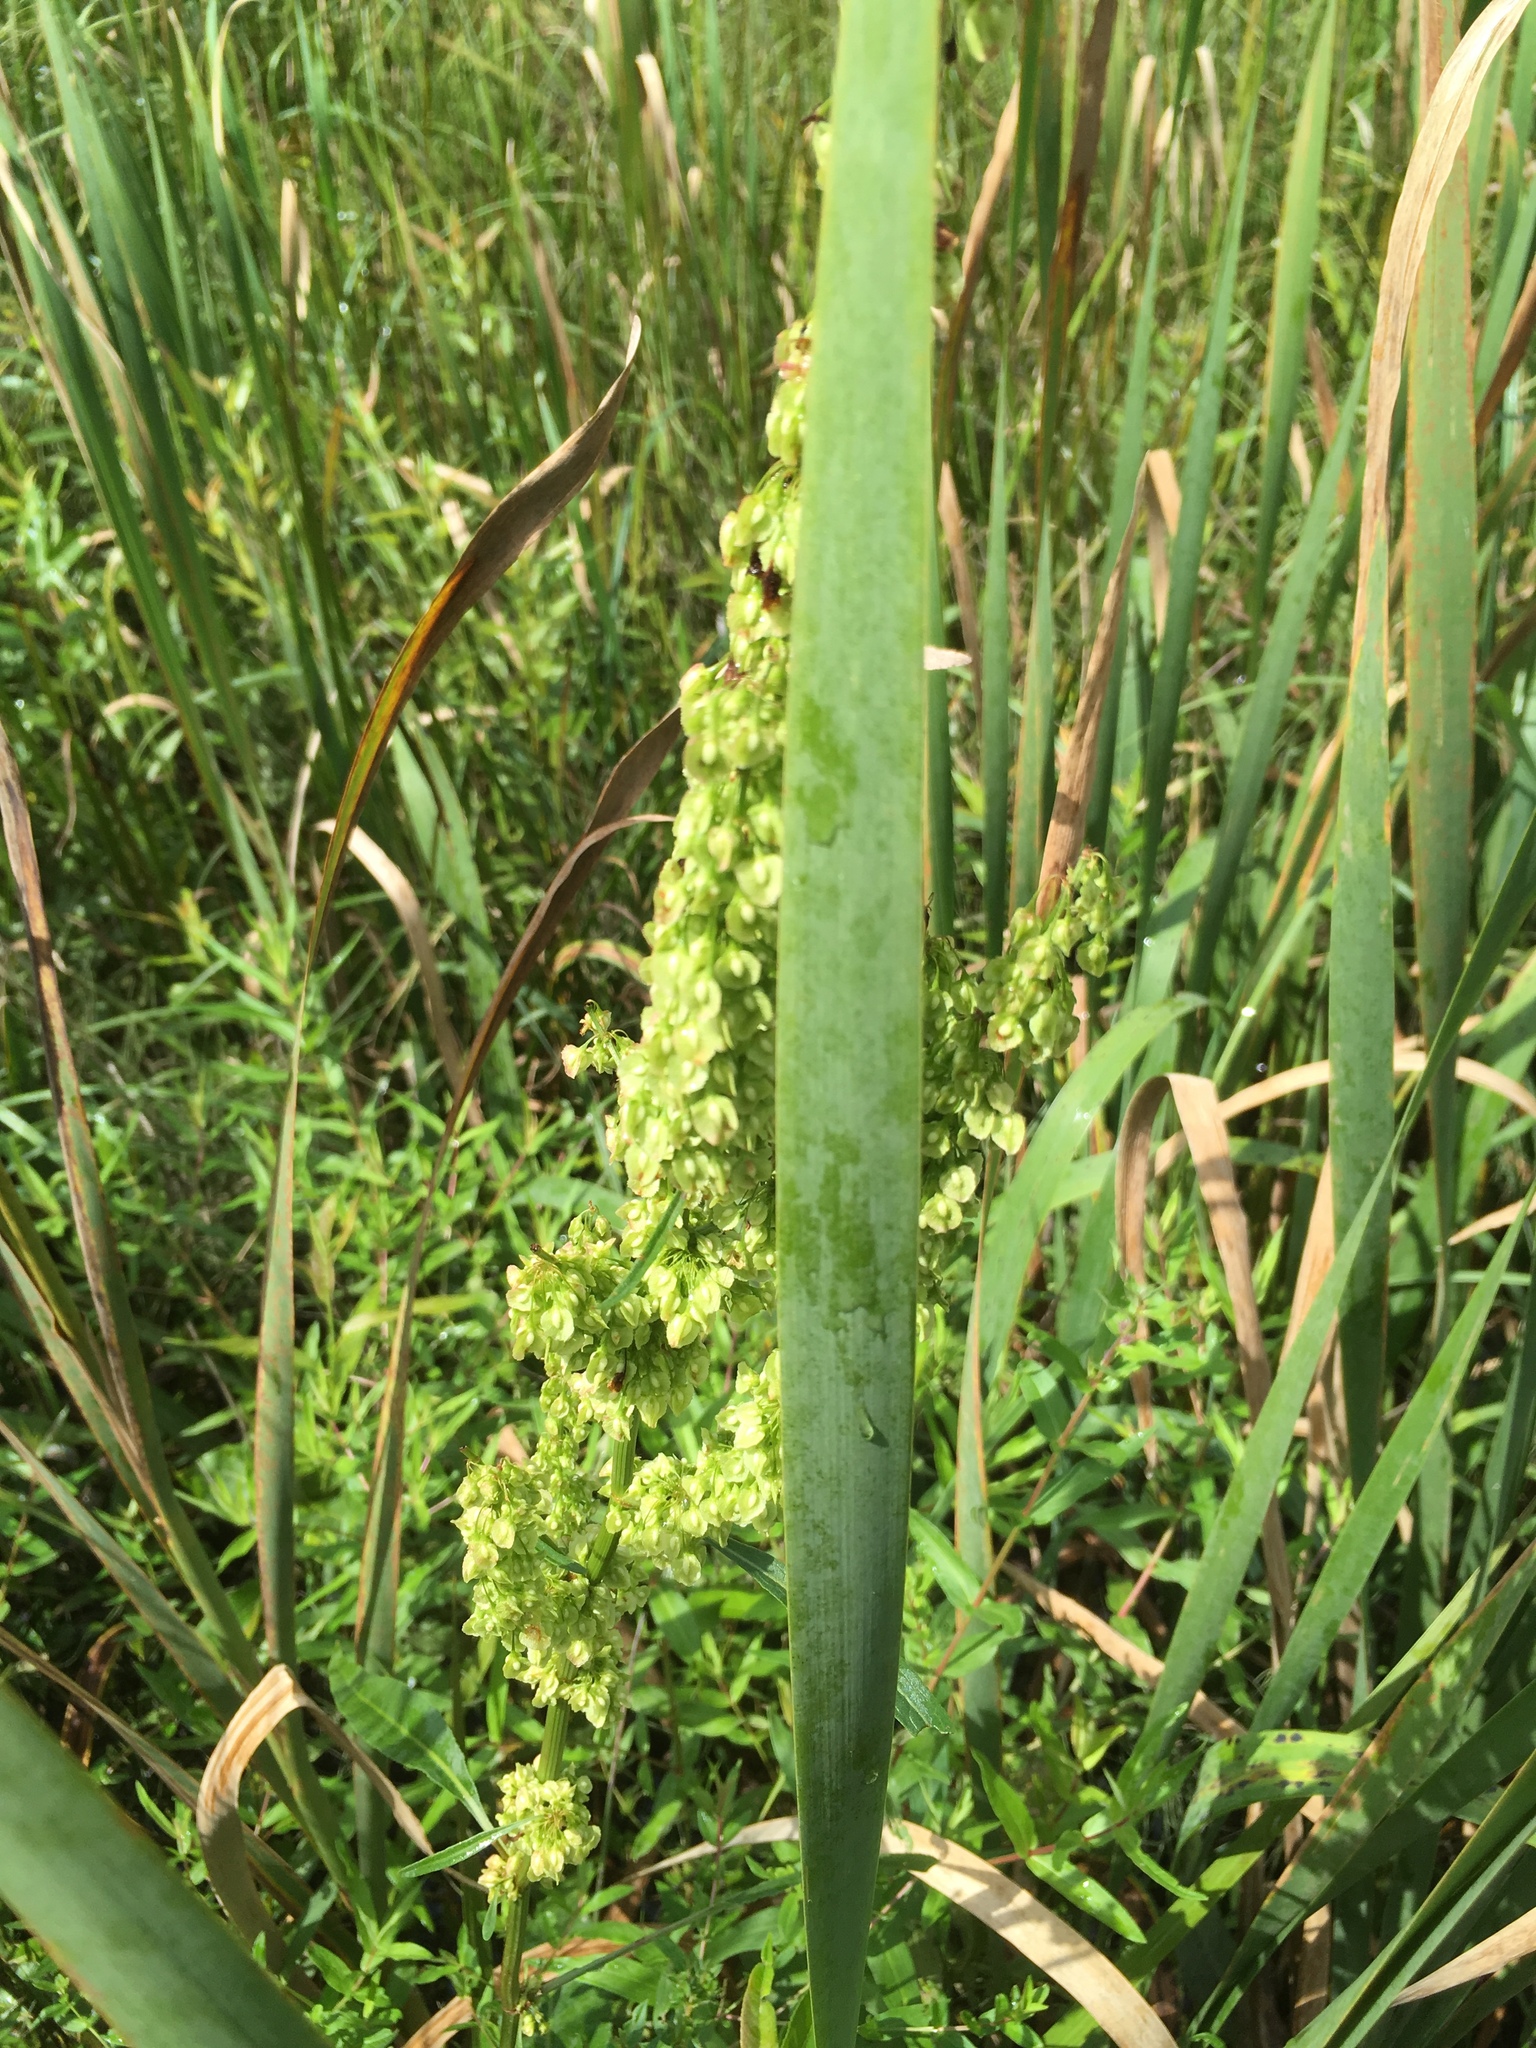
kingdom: Plantae
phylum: Tracheophyta
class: Magnoliopsida
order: Caryophyllales
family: Polygonaceae
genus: Rumex
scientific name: Rumex crispus
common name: Curled dock
